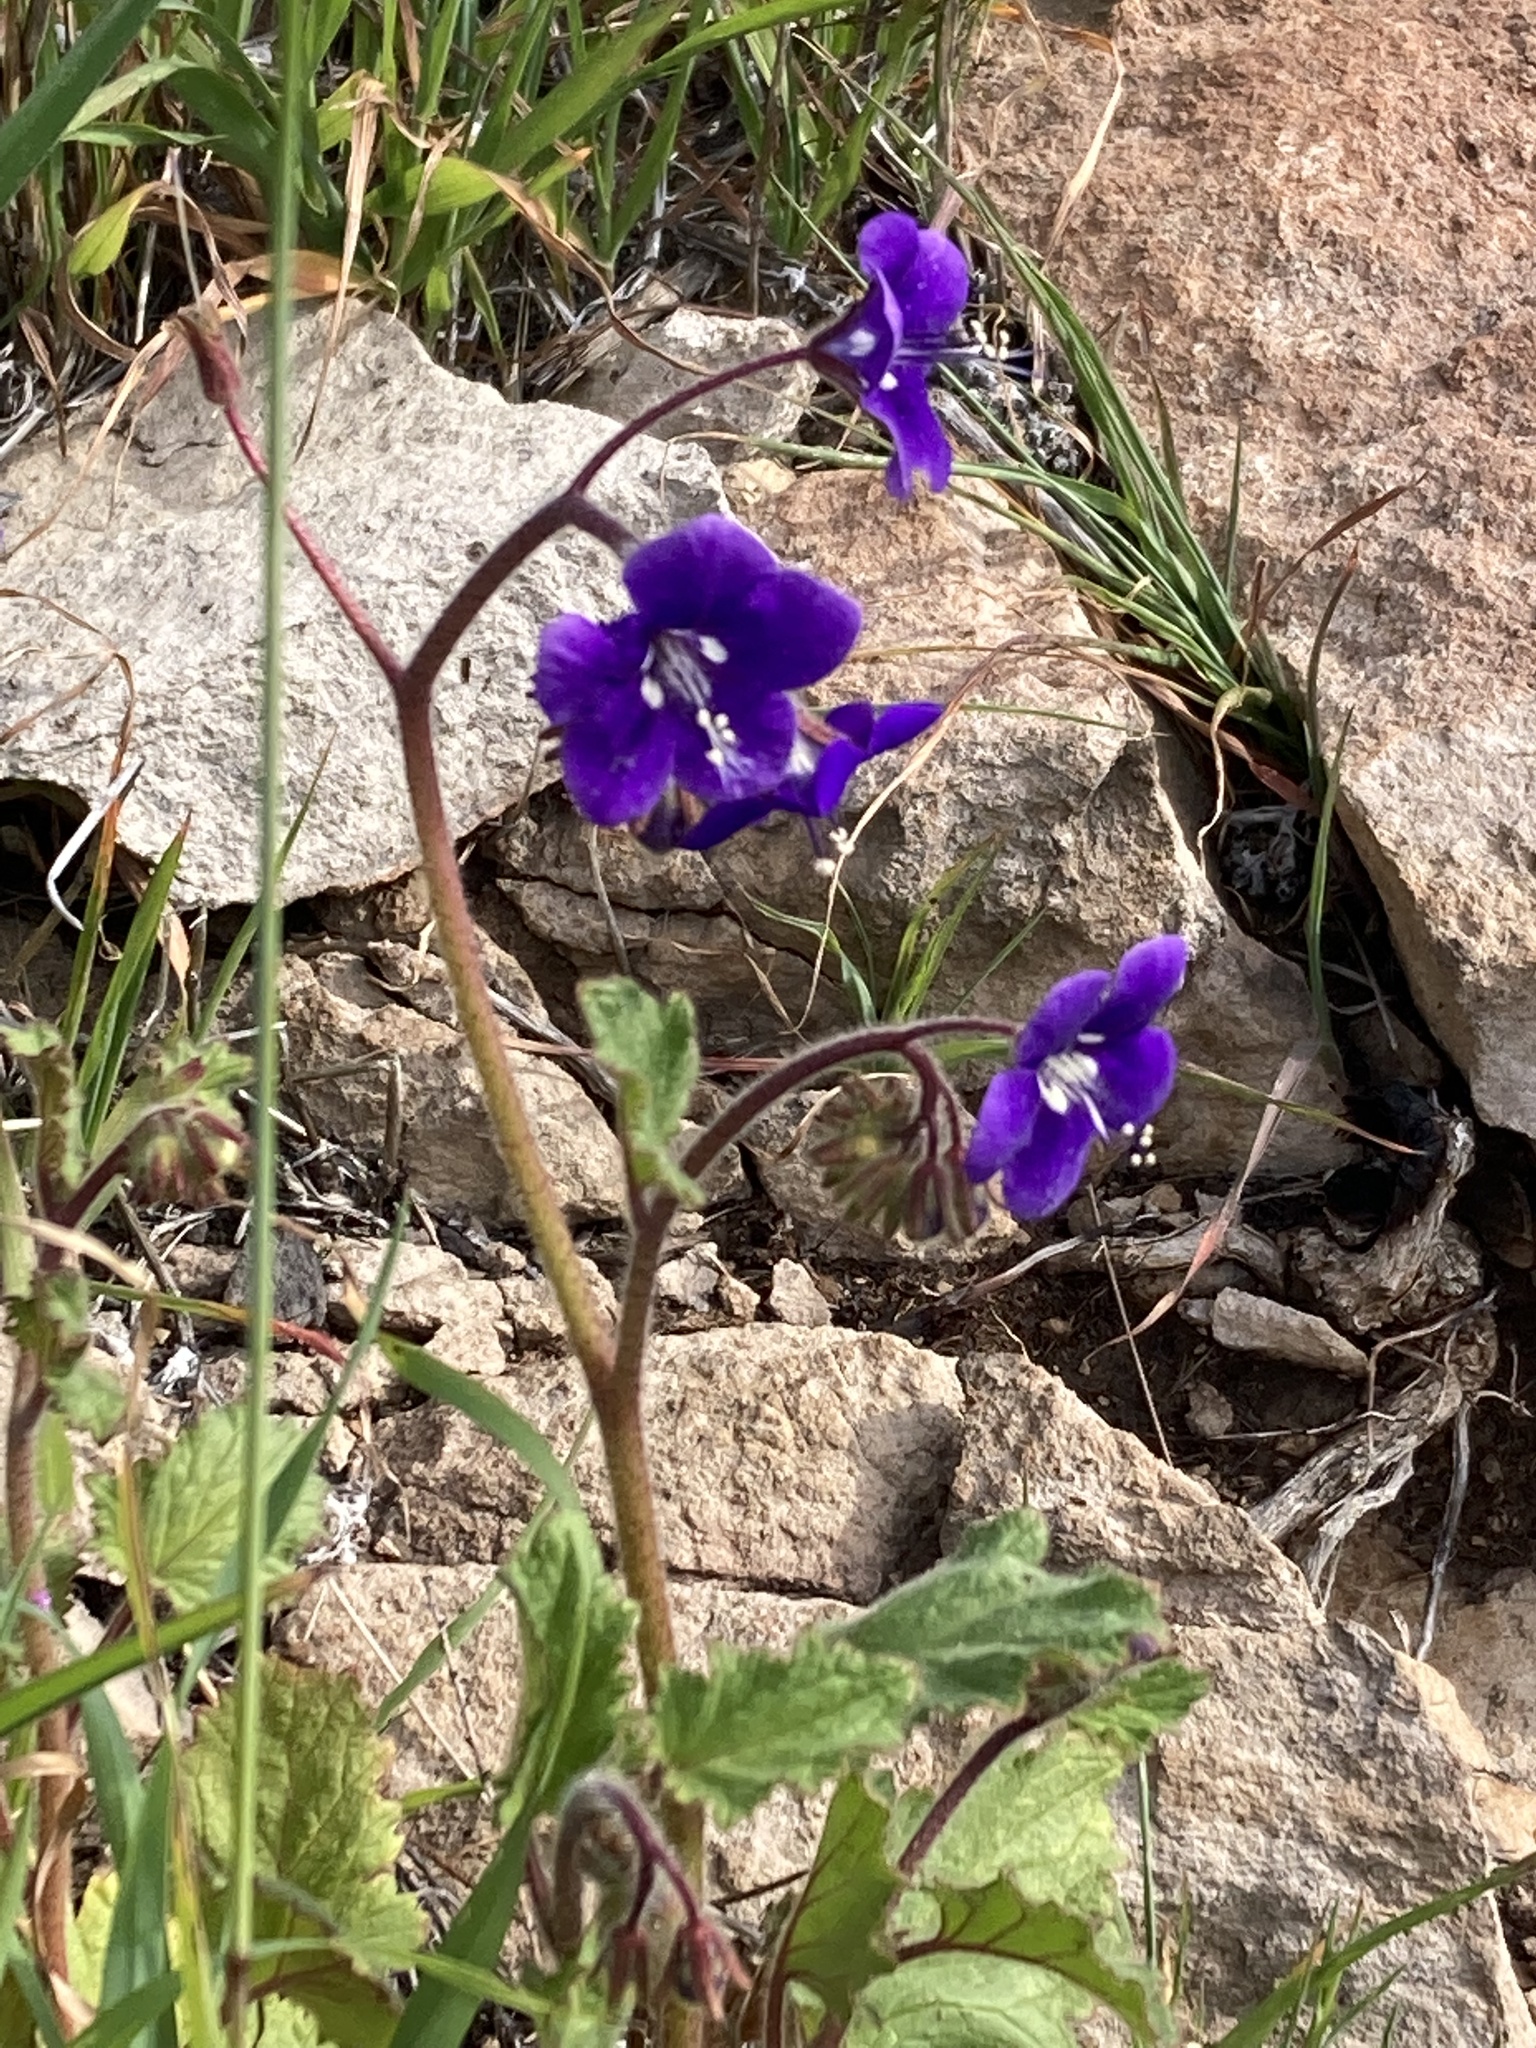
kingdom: Plantae
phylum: Tracheophyta
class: Magnoliopsida
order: Boraginales
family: Hydrophyllaceae
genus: Phacelia
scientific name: Phacelia parryi
